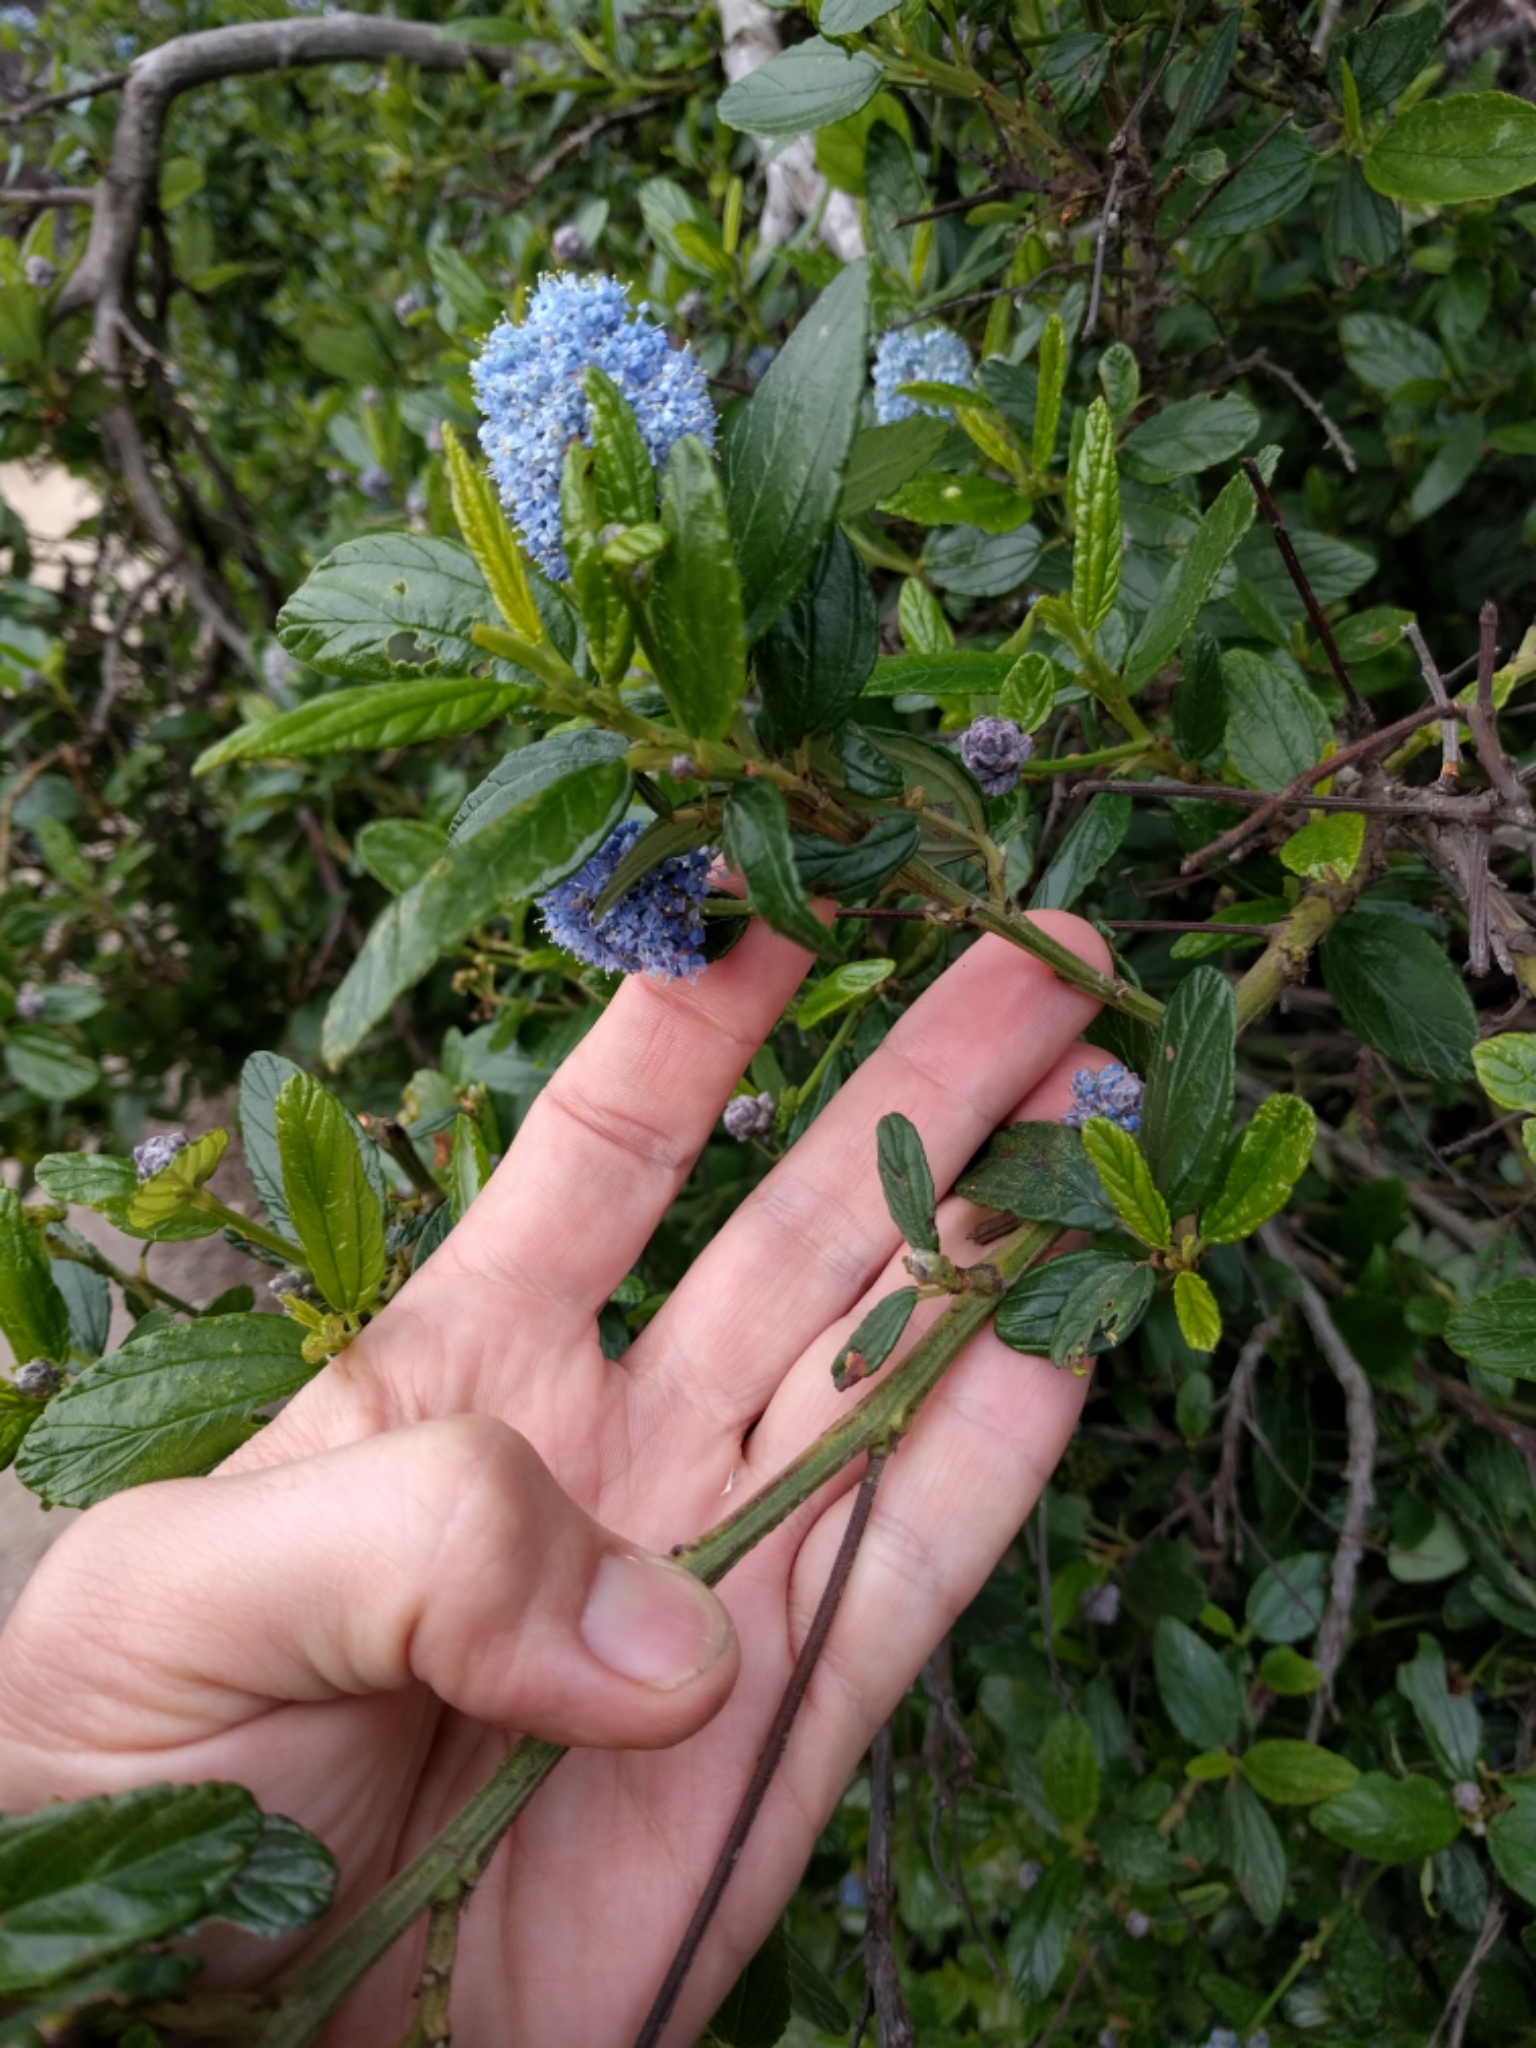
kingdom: Plantae
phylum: Tracheophyta
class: Magnoliopsida
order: Rosales
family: Rhamnaceae
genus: Ceanothus
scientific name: Ceanothus thyrsiflorus
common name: California-lilac
